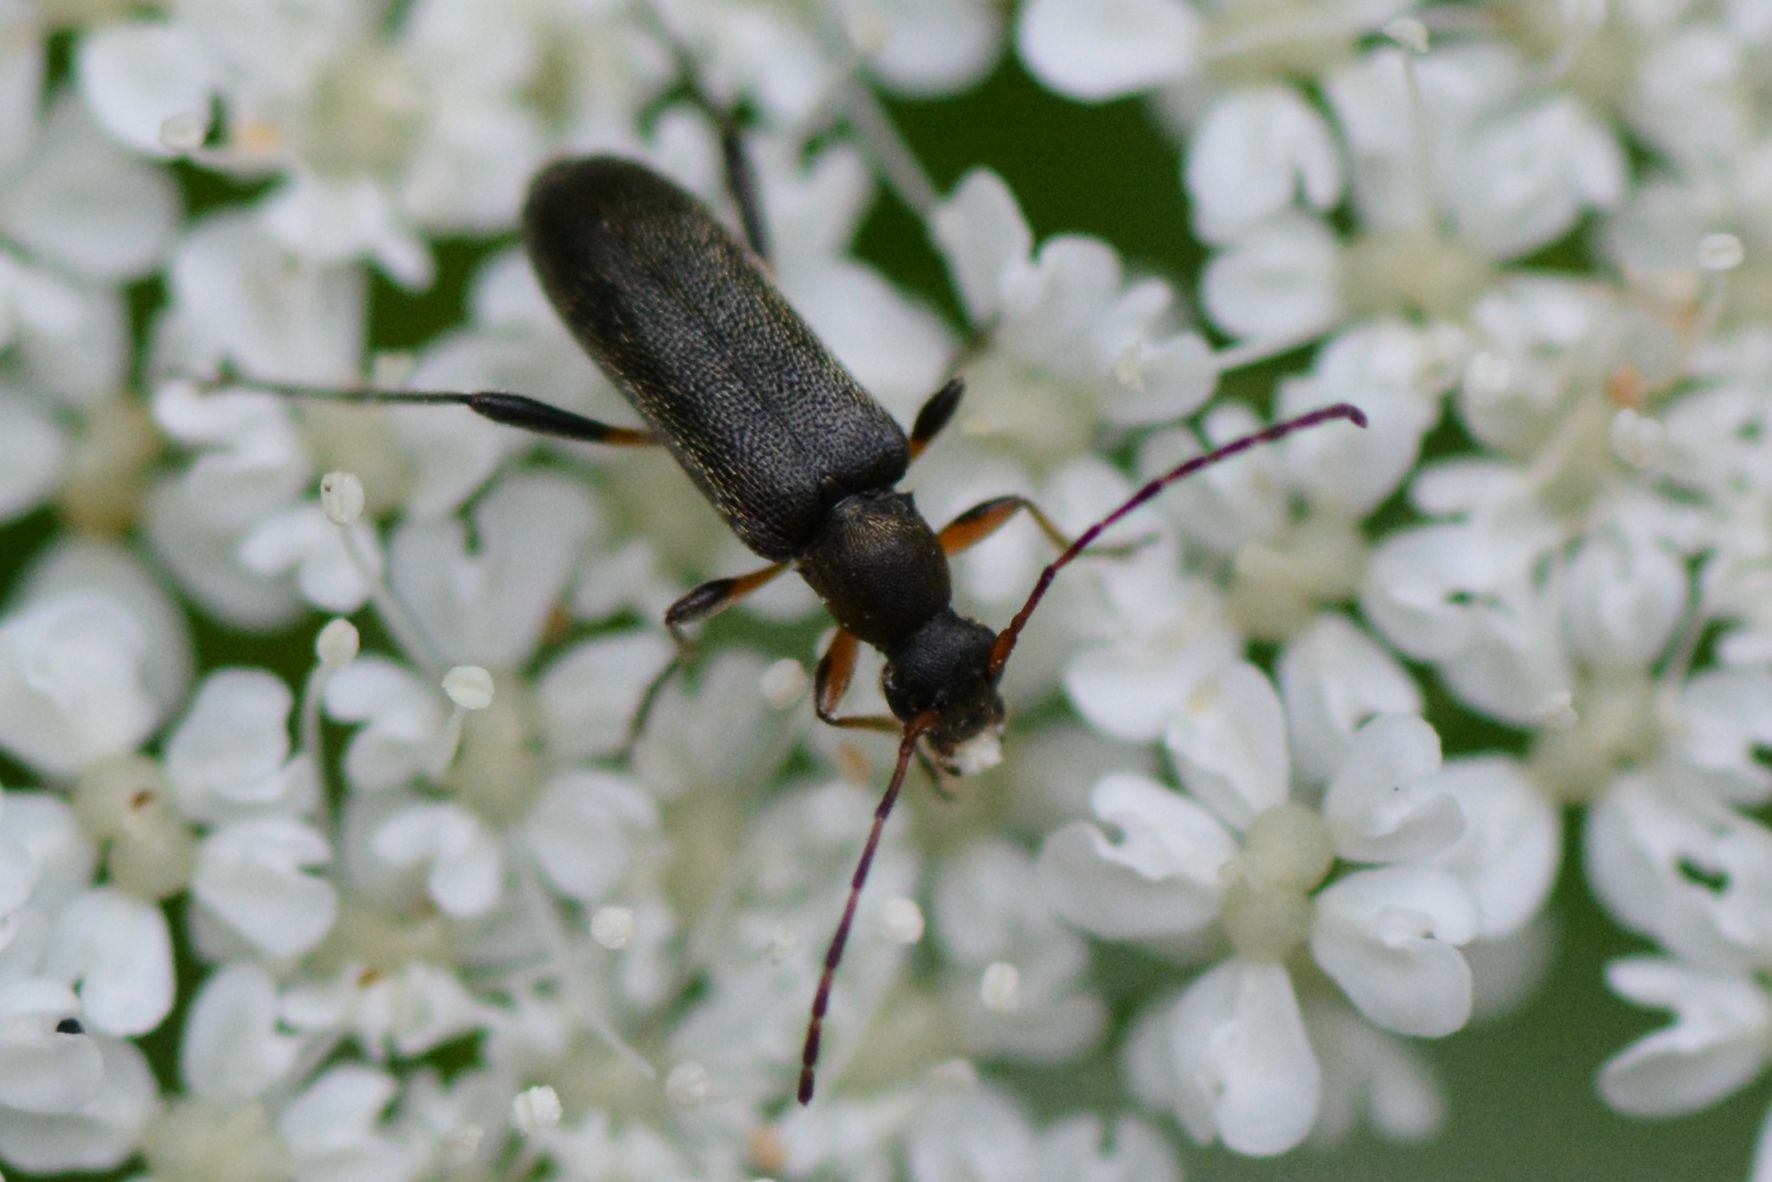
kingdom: Animalia
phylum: Arthropoda
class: Insecta
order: Coleoptera
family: Cerambycidae
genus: Grammoptera
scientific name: Grammoptera ruficornis
